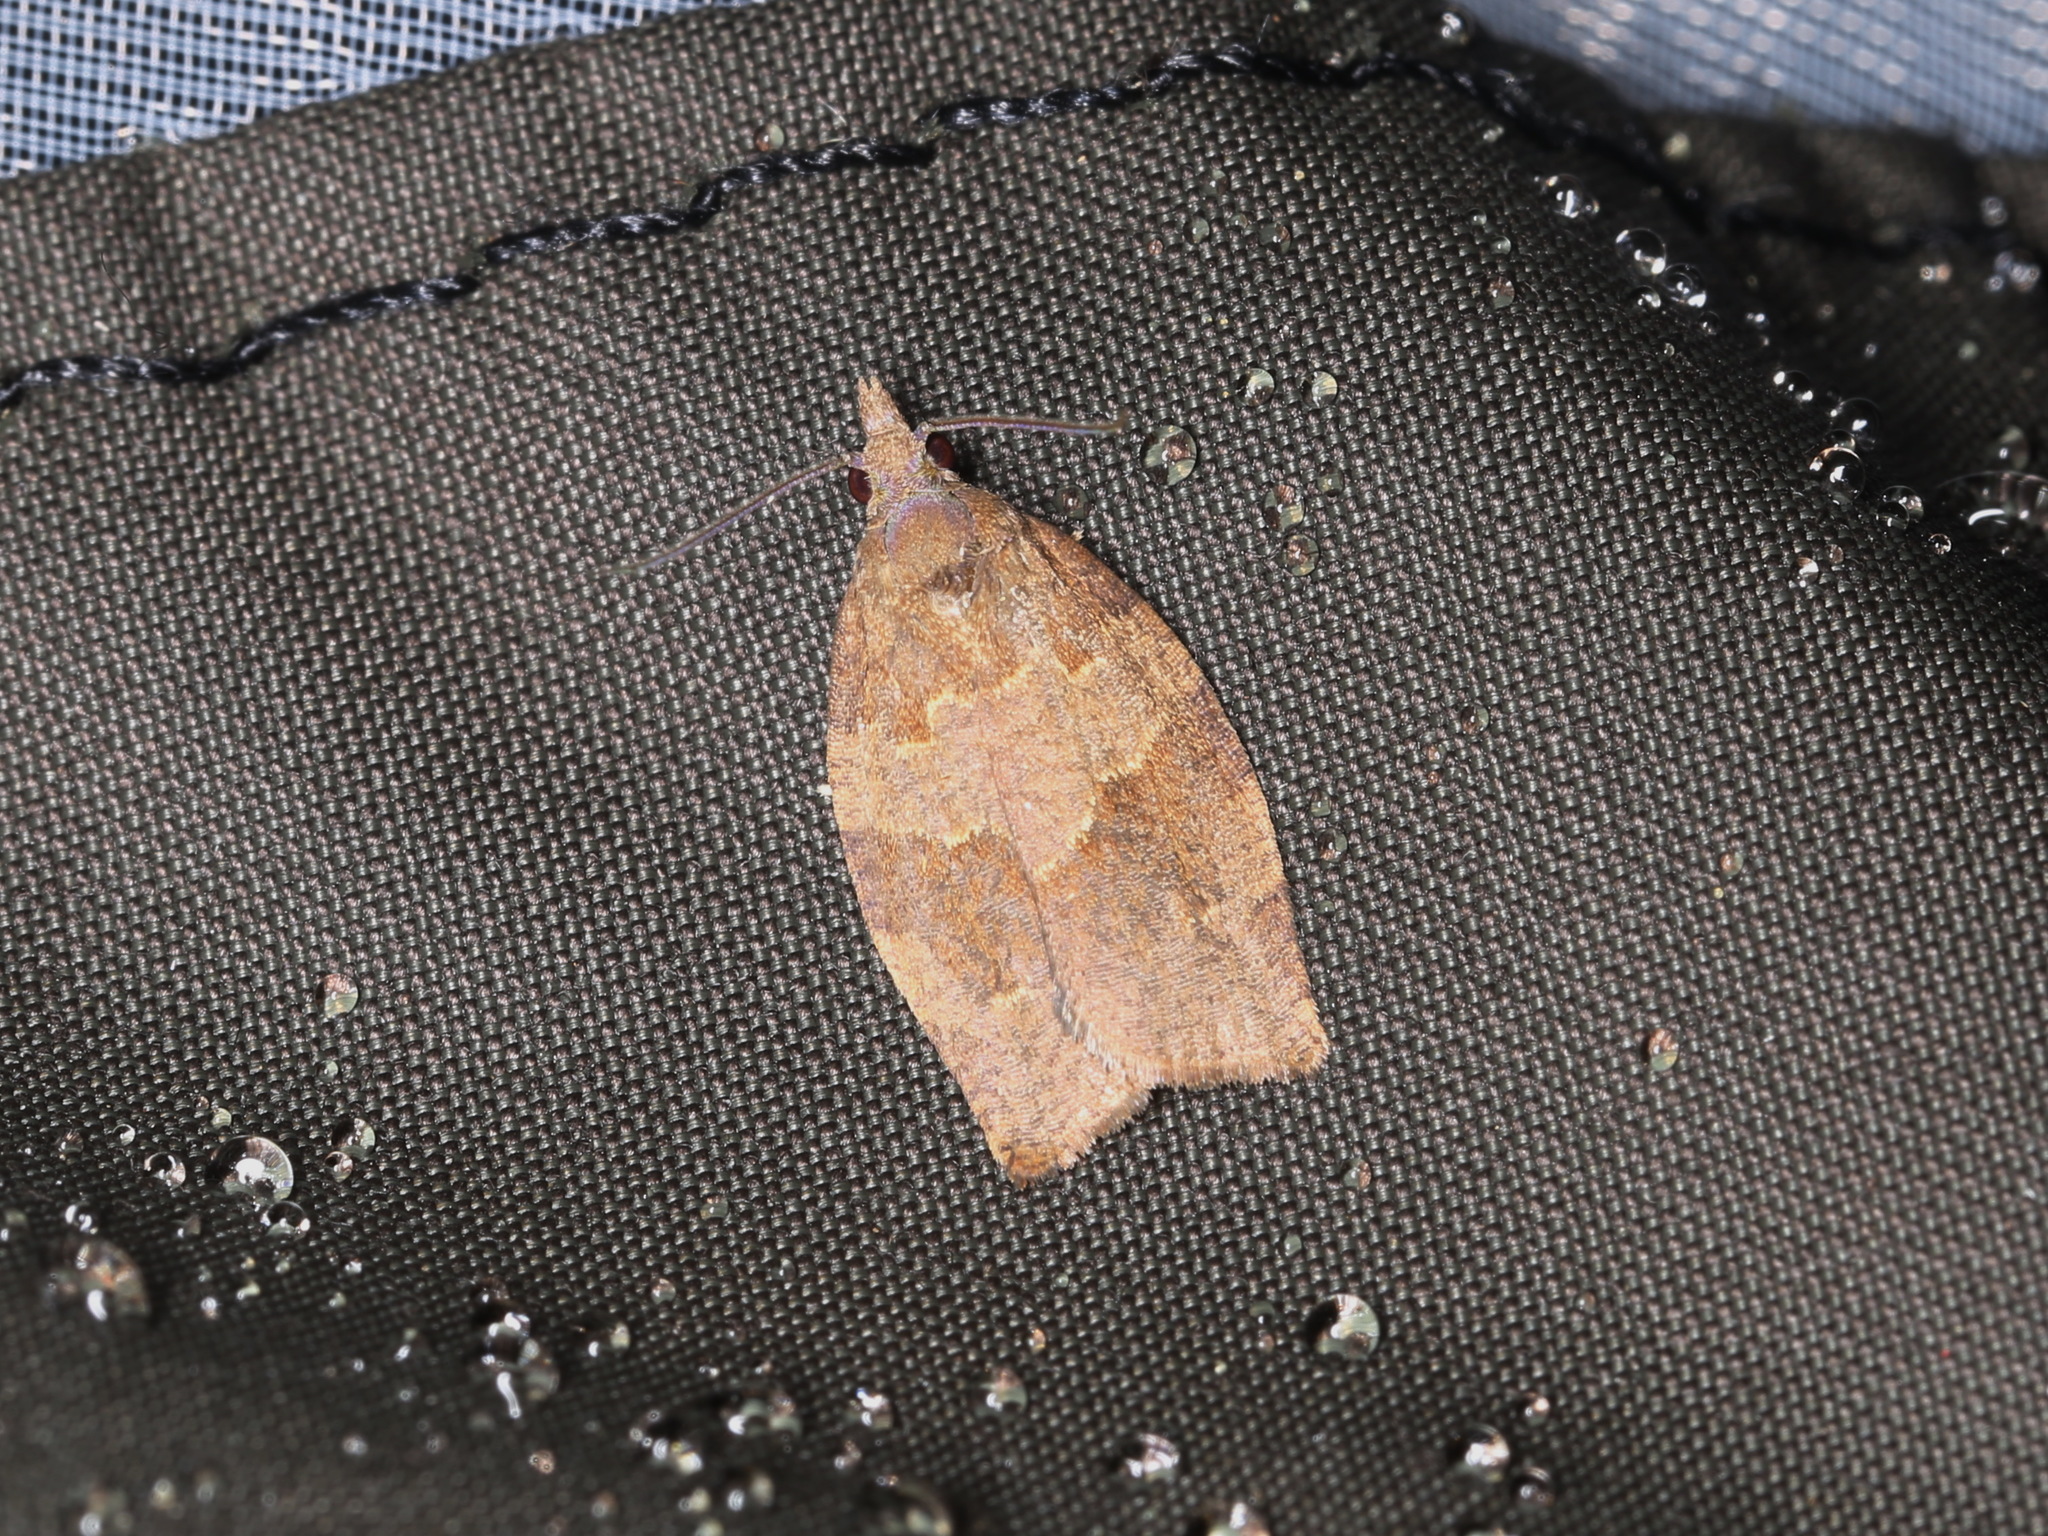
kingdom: Animalia
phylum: Arthropoda
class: Insecta
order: Lepidoptera
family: Tortricidae
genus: Pandemis
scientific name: Pandemis heparana
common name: Dark fruit-tree tortrix
